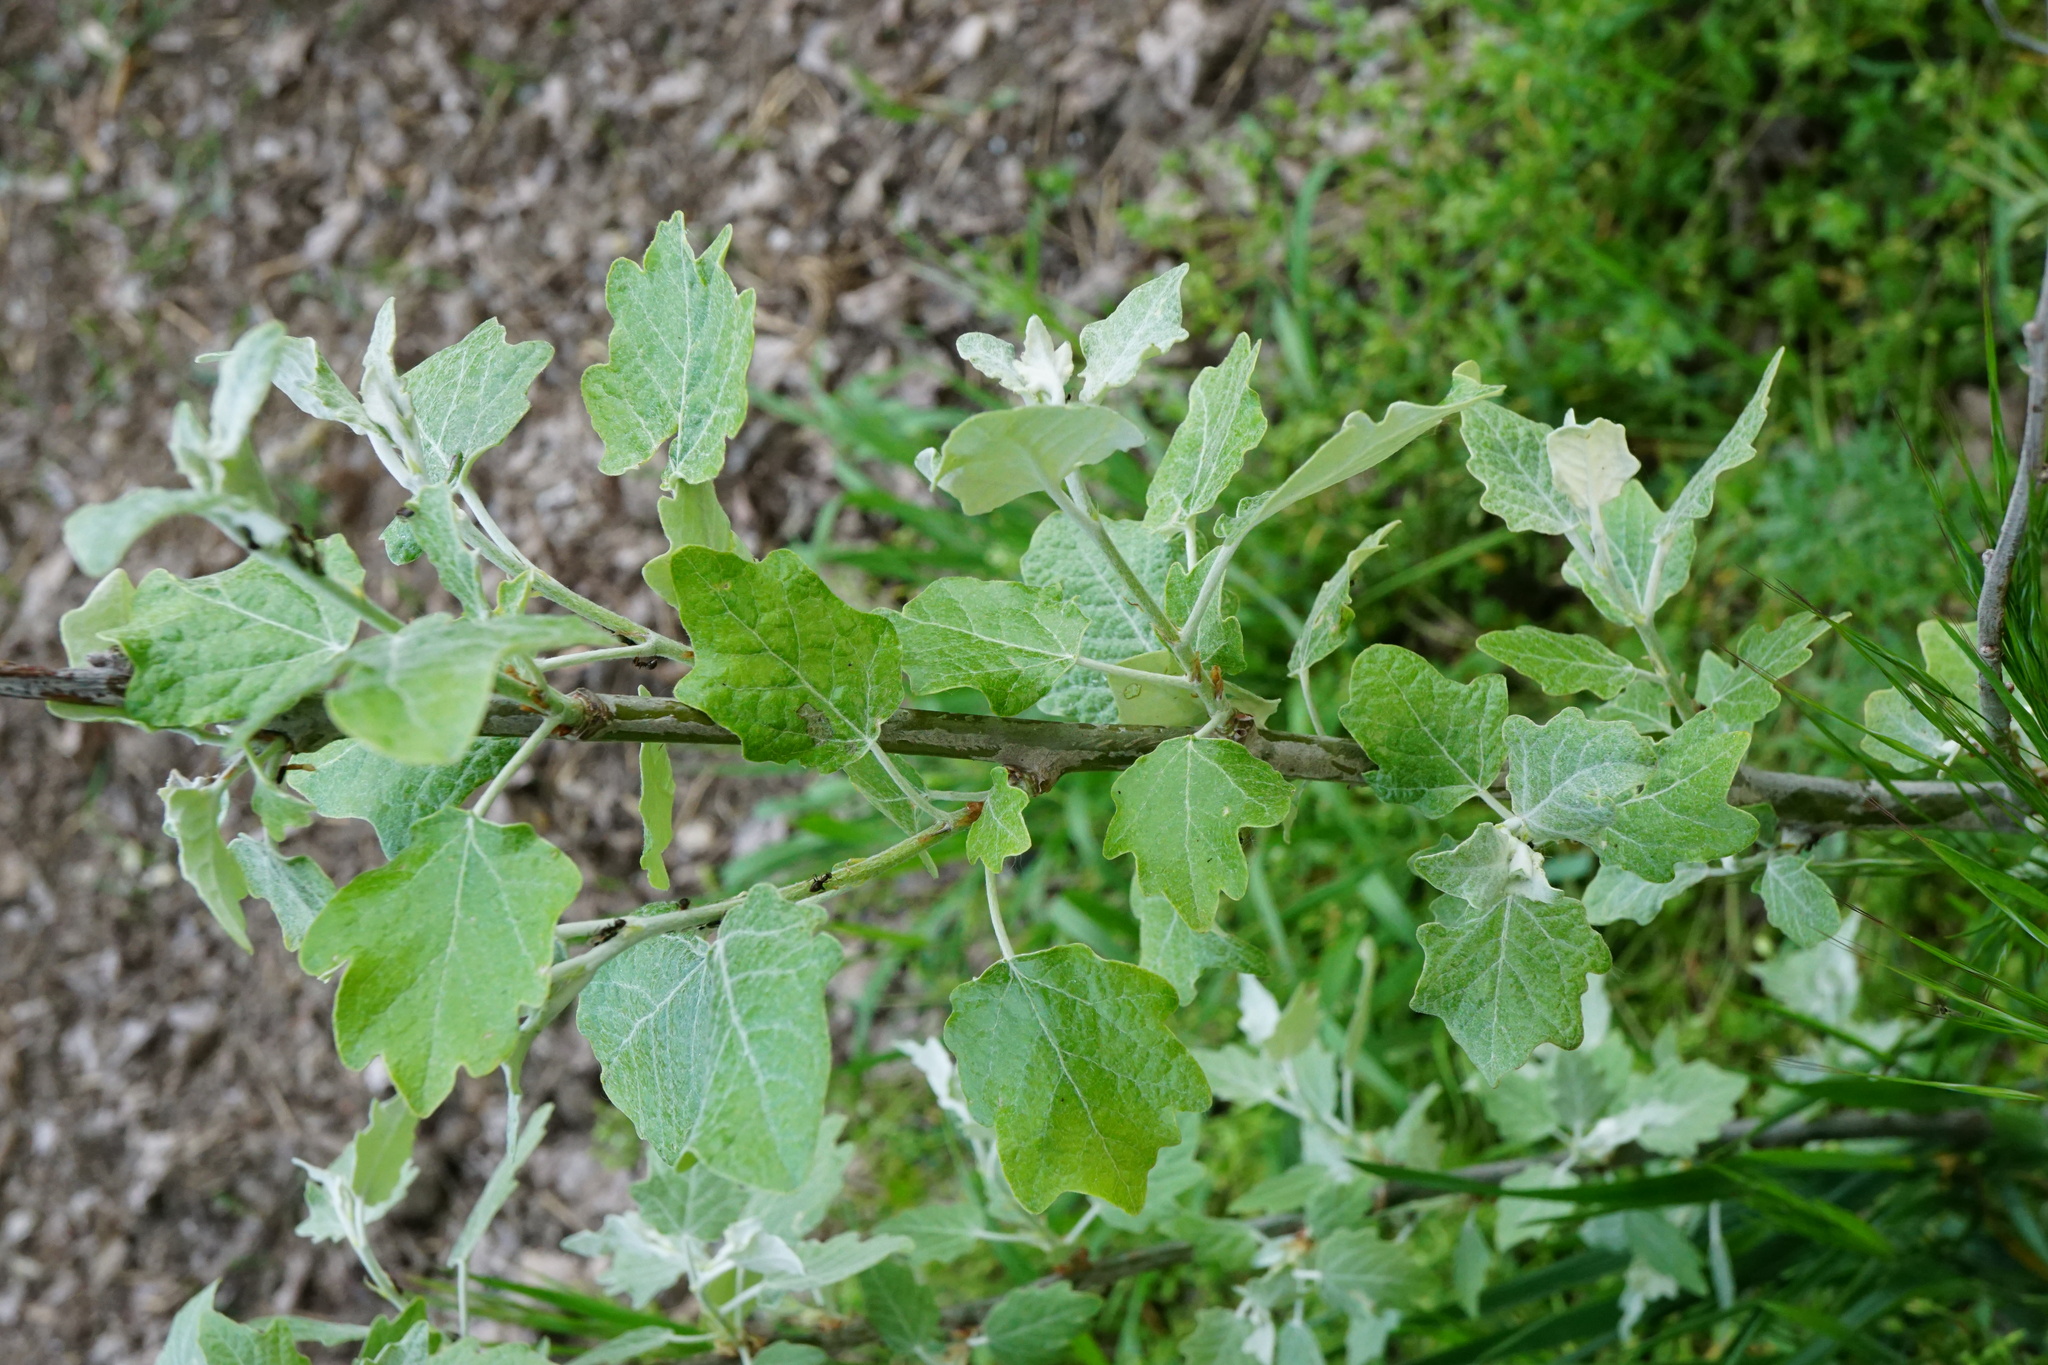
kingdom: Plantae
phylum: Tracheophyta
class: Magnoliopsida
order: Malpighiales
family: Salicaceae
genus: Populus
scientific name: Populus alba
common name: White poplar
